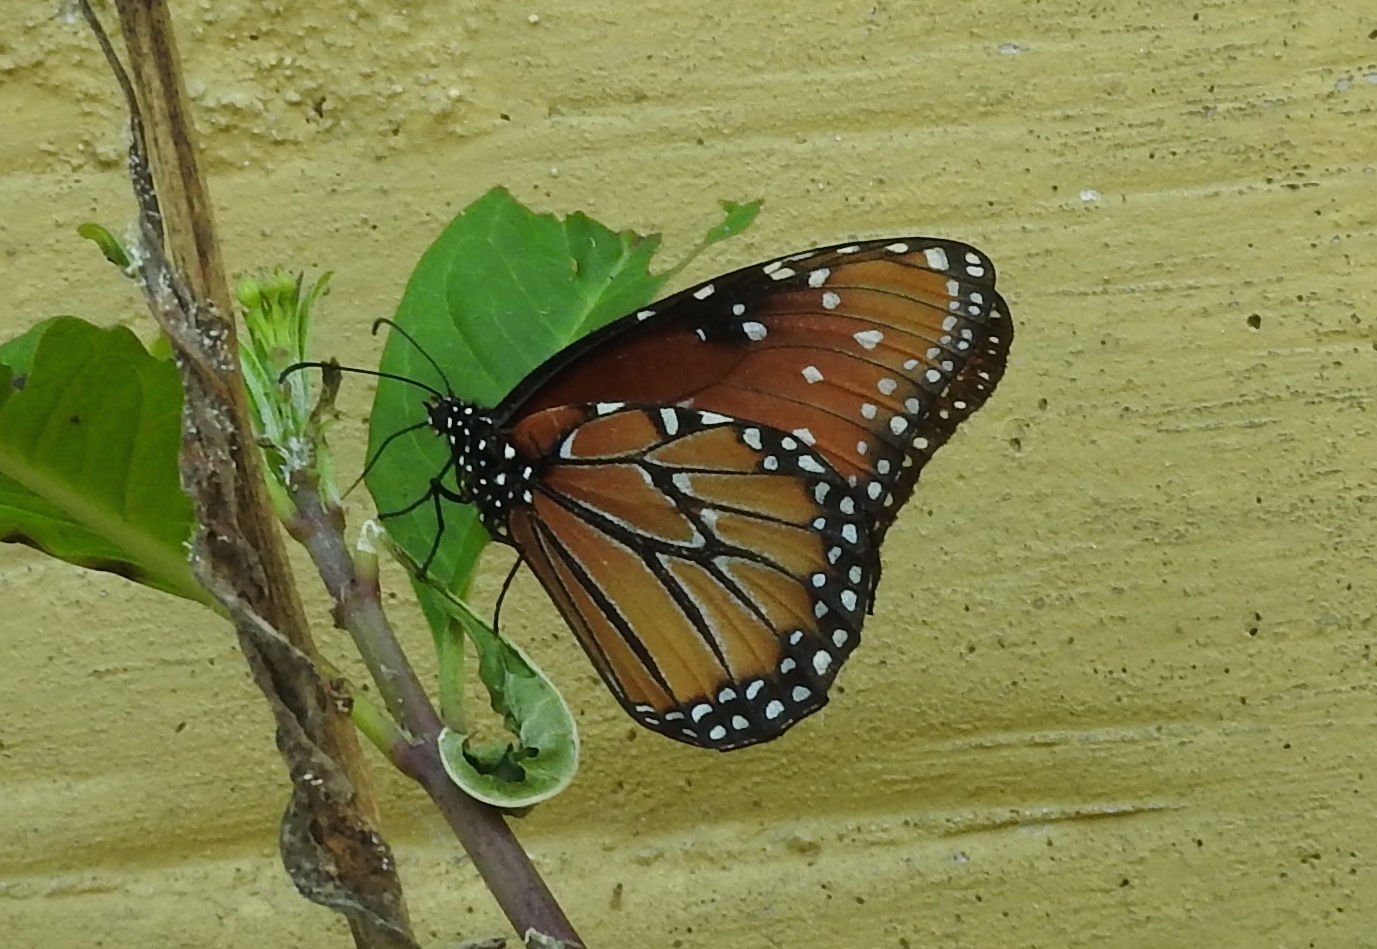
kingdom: Animalia
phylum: Arthropoda
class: Insecta
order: Lepidoptera
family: Nymphalidae
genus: Danaus
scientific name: Danaus gilippus
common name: Queen
